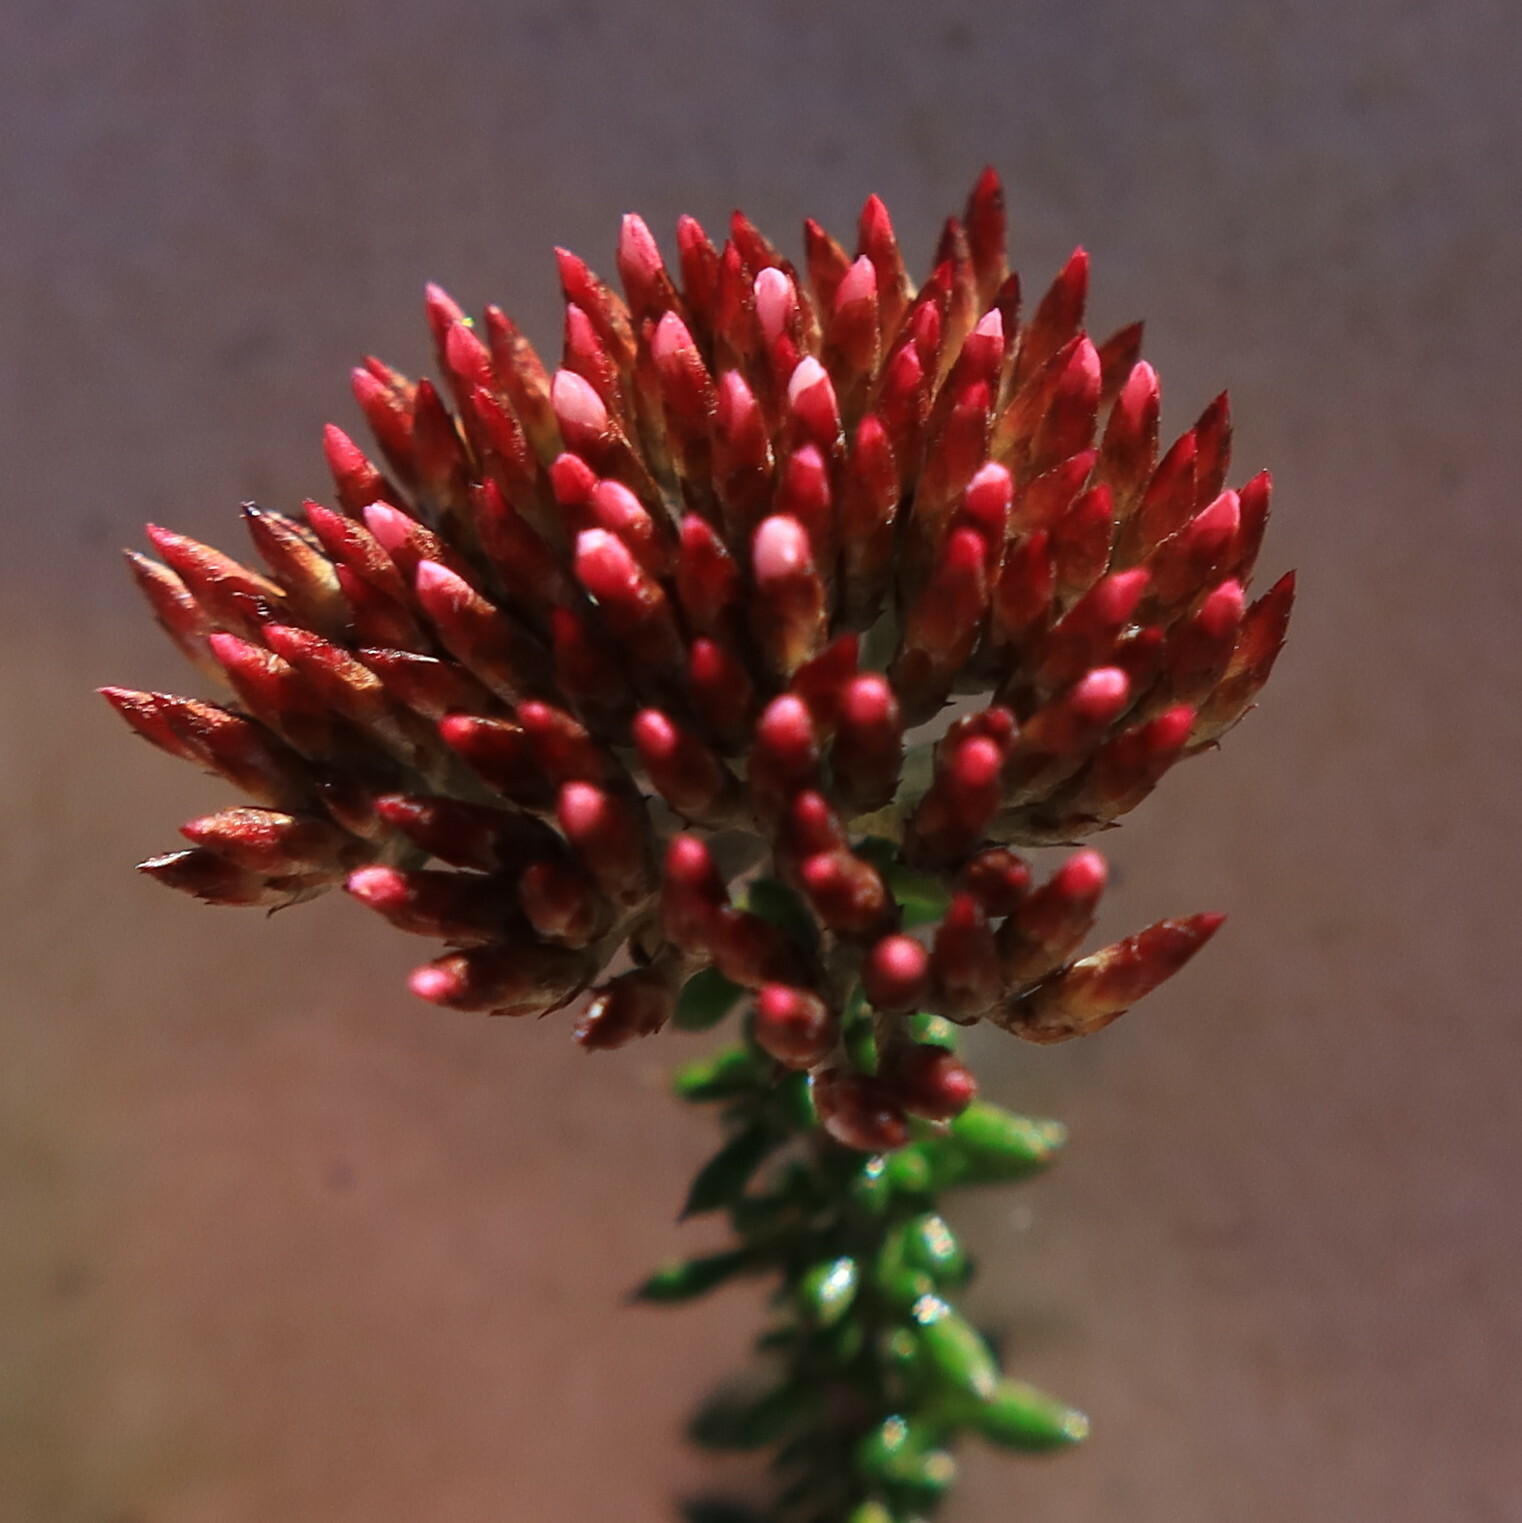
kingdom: Plantae
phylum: Tracheophyta
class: Magnoliopsida
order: Asterales
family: Asteraceae
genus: Metalasia
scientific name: Metalasia densa
